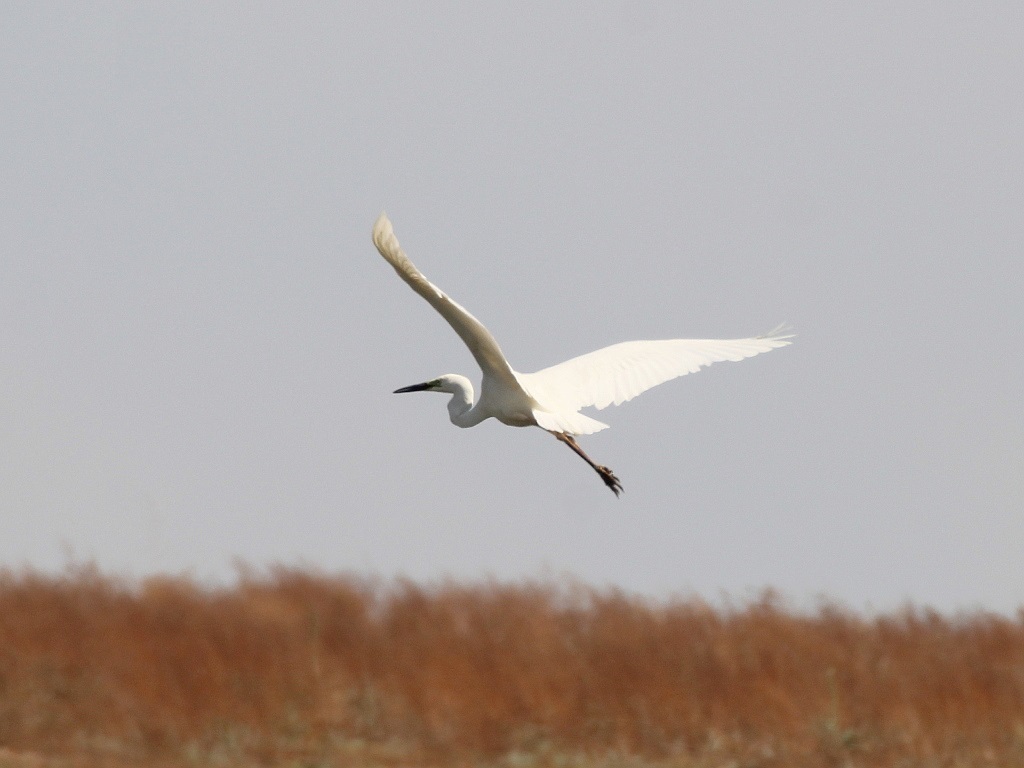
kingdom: Animalia
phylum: Chordata
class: Aves
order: Pelecaniformes
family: Ardeidae
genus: Ardea
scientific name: Ardea alba
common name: Great egret
